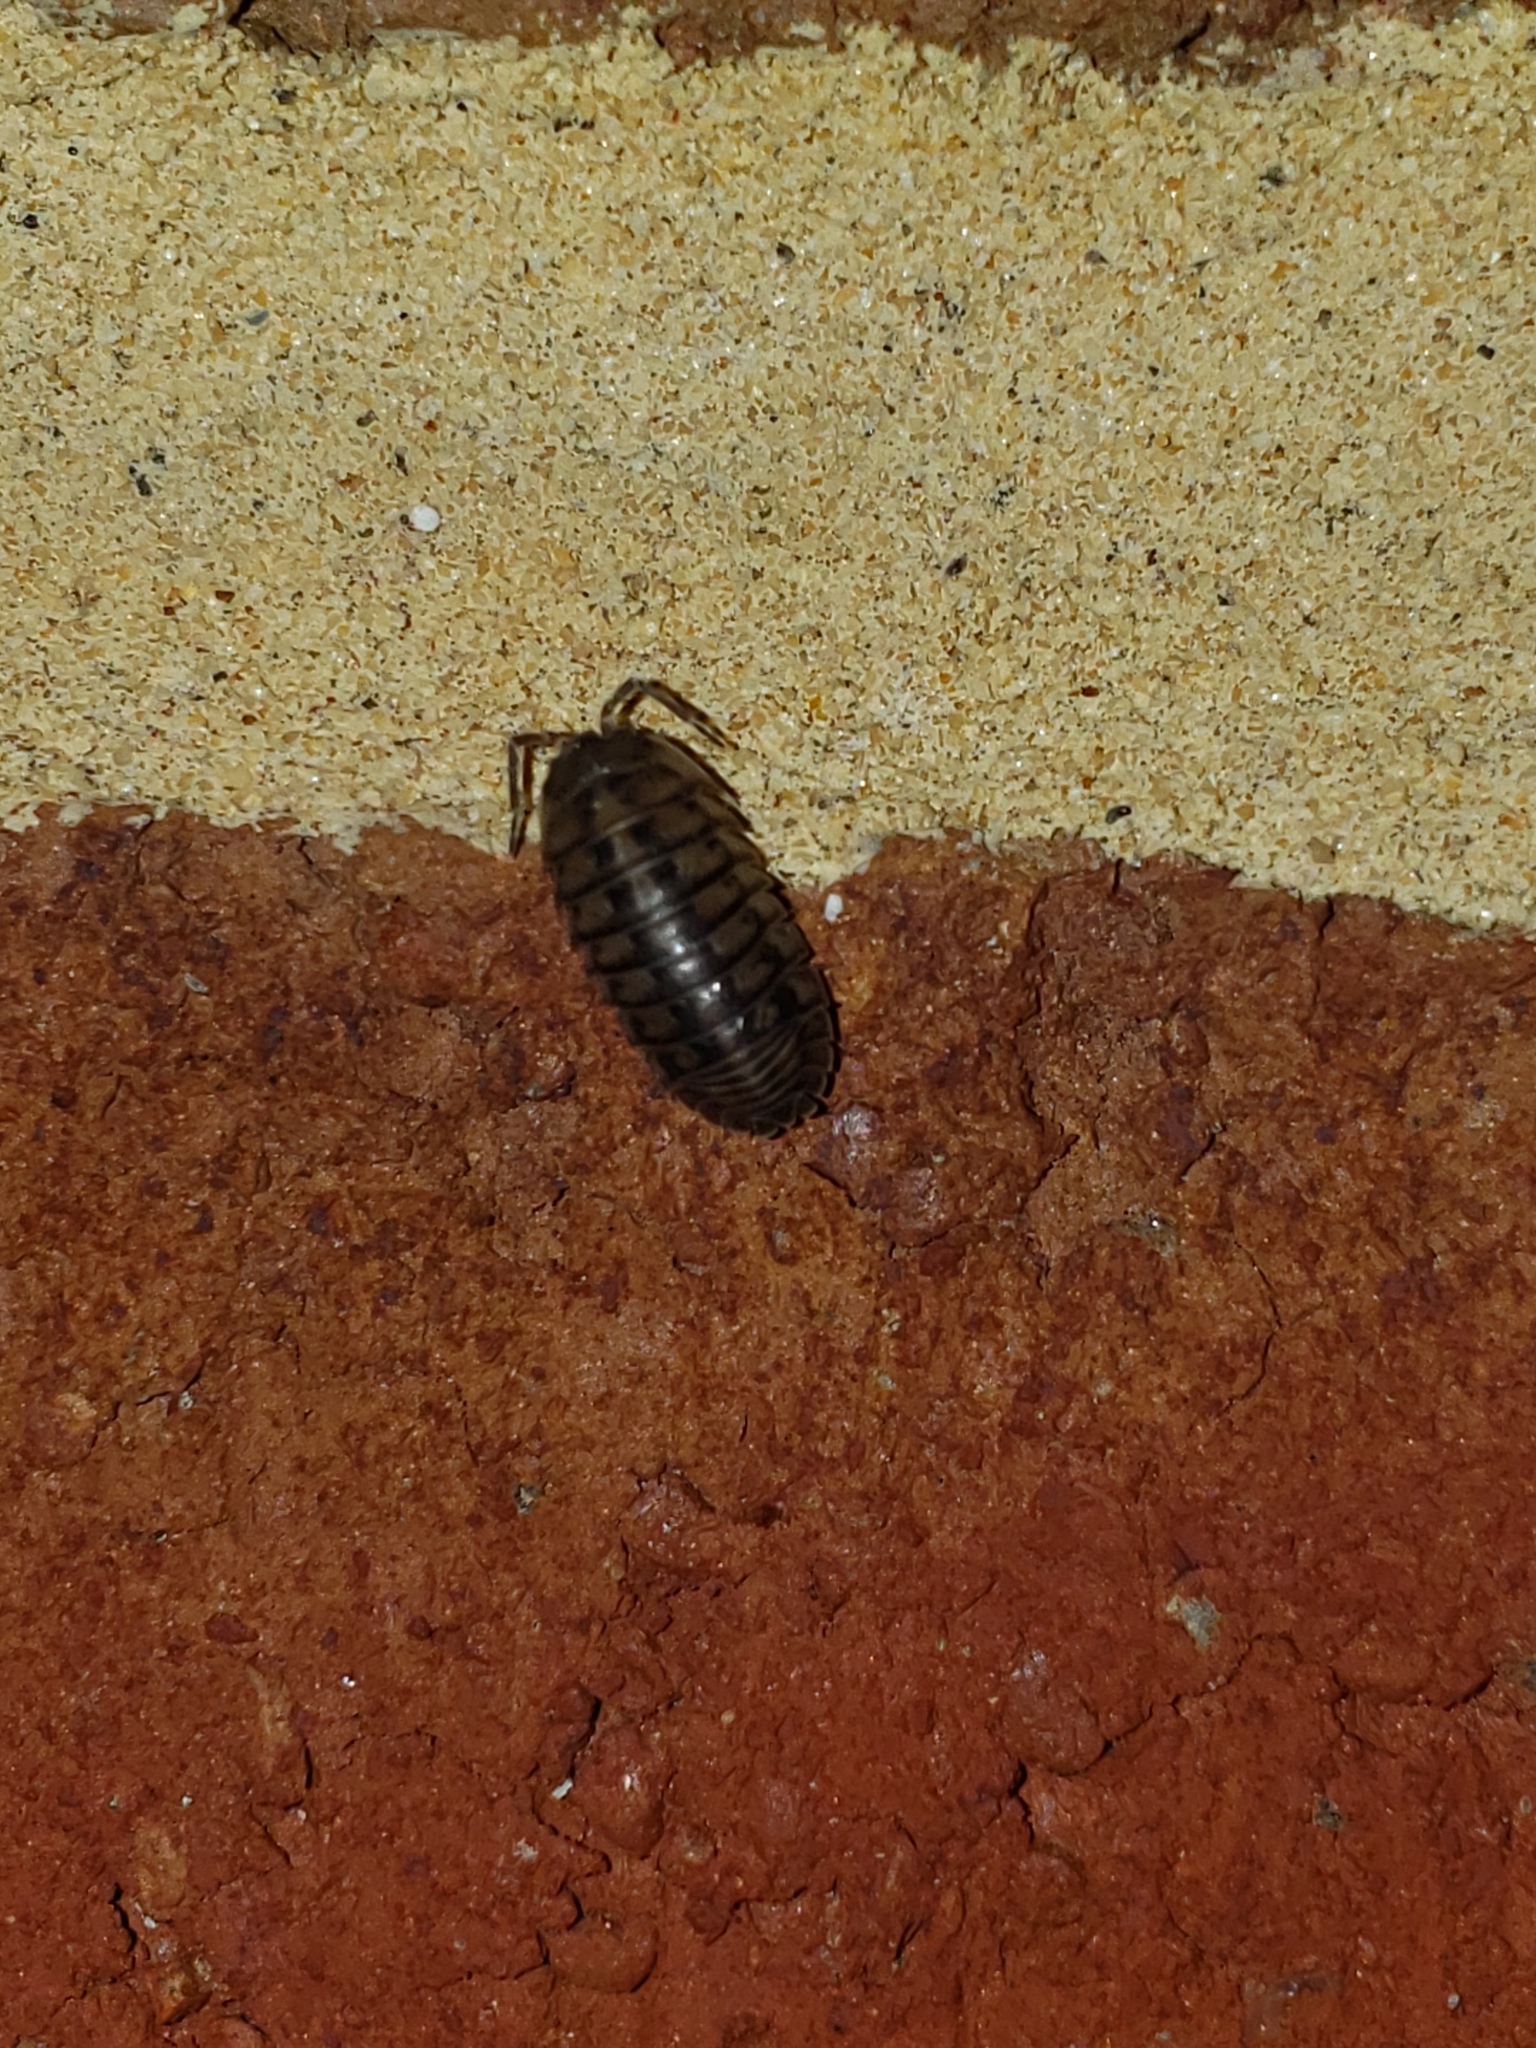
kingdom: Animalia
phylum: Arthropoda
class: Malacostraca
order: Isopoda
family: Armadillidiidae
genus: Armadillidium
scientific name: Armadillidium nasatum
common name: Isopod
